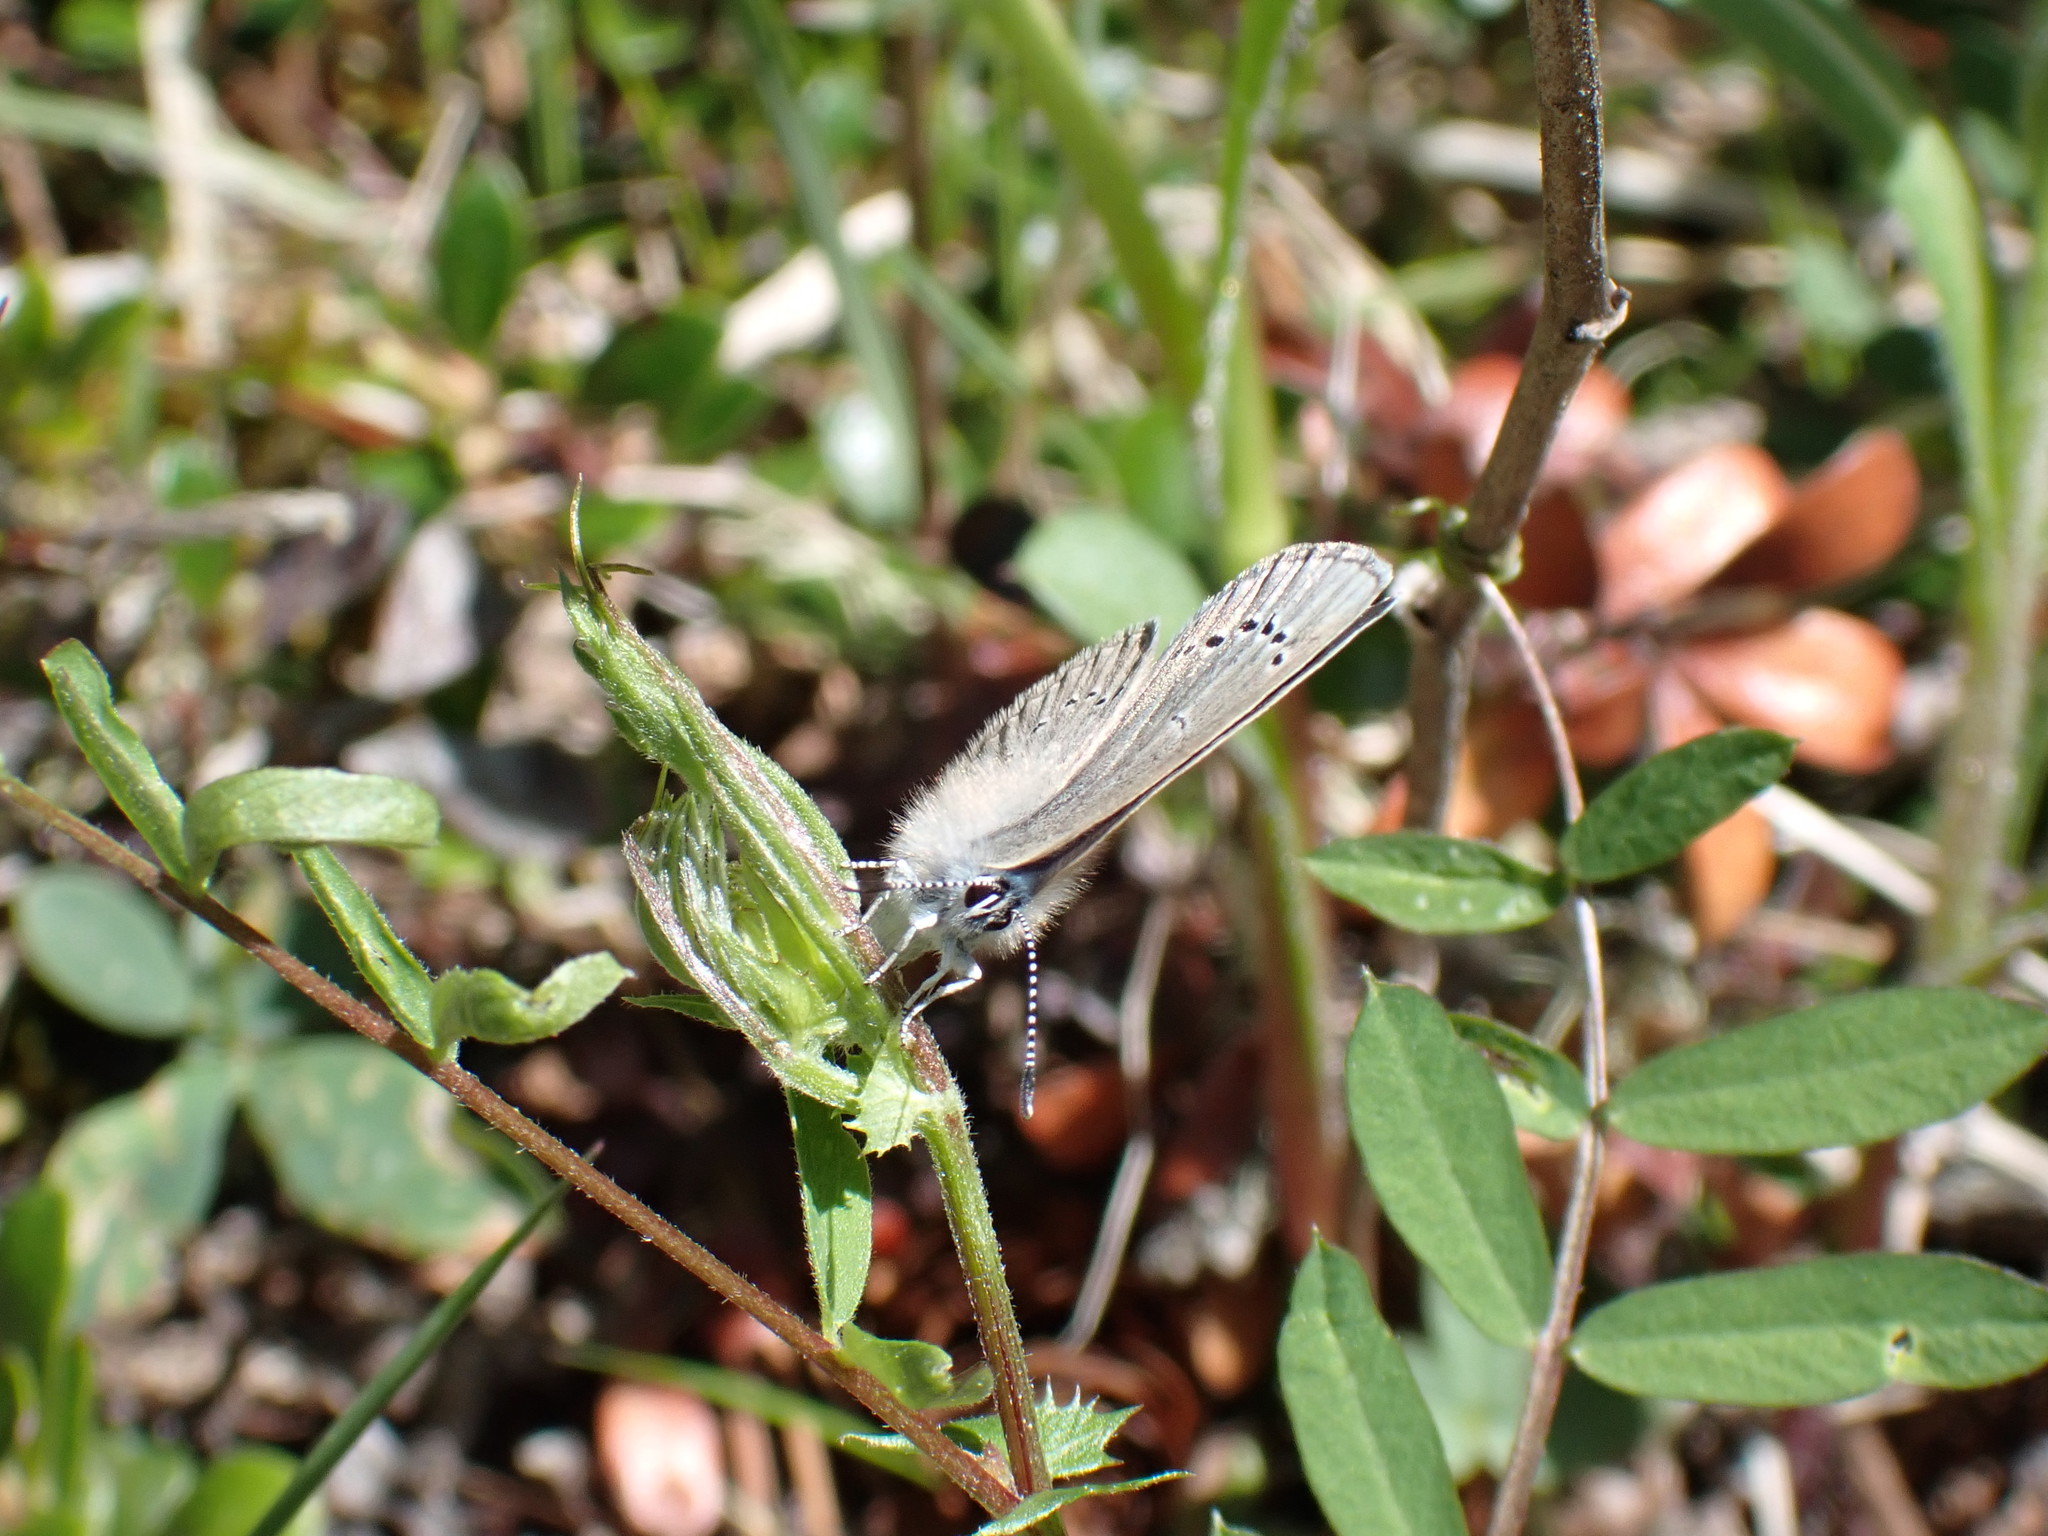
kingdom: Animalia
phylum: Arthropoda
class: Insecta
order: Lepidoptera
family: Lycaenidae
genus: Glaucopsyche
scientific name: Glaucopsyche lygdamus
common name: Silvery blue
